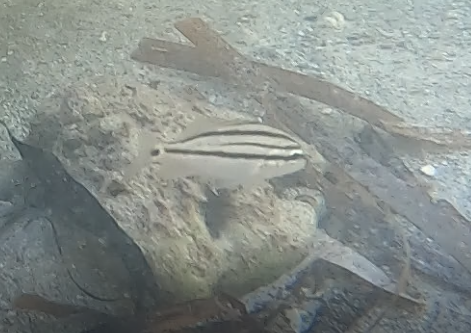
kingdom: Animalia
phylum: Chordata
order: Perciformes
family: Haemulidae
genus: Haemulon
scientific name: Haemulon parra
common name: Sailor's choice
